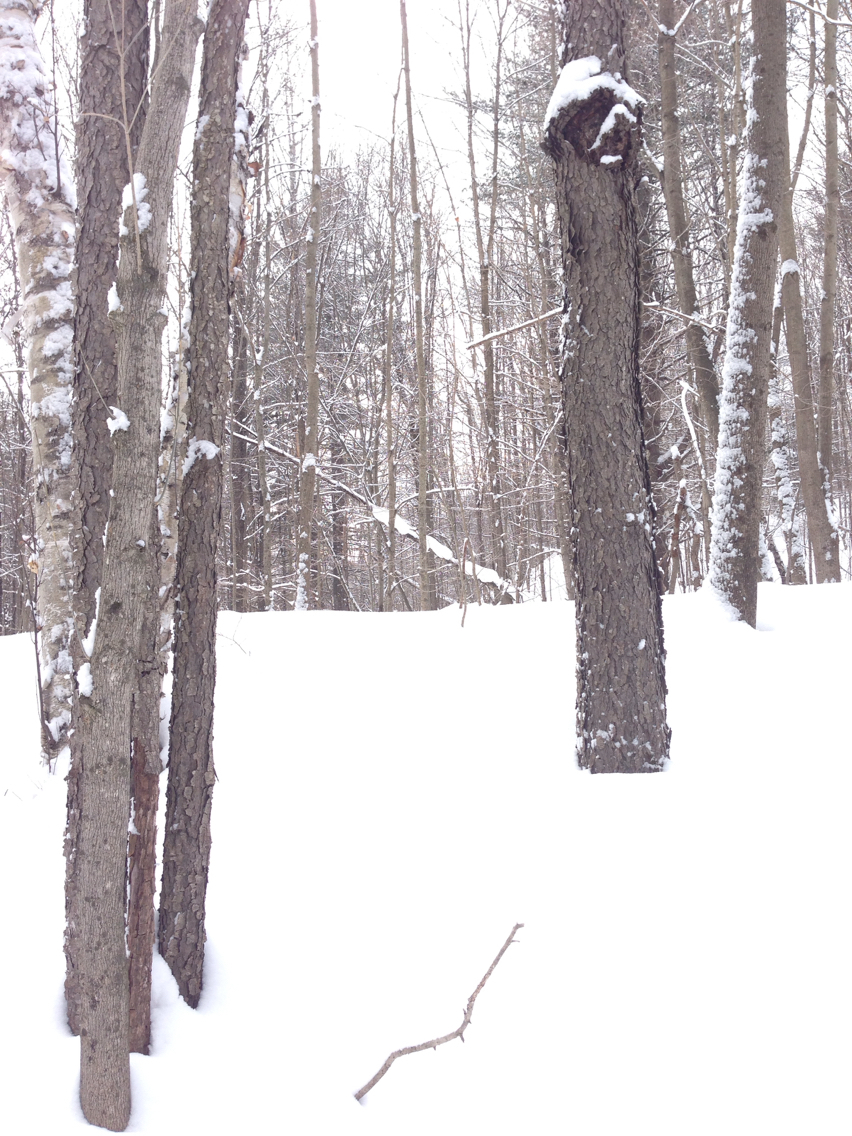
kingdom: Plantae
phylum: Tracheophyta
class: Magnoliopsida
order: Rosales
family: Rosaceae
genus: Prunus
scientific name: Prunus serotina
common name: Black cherry
